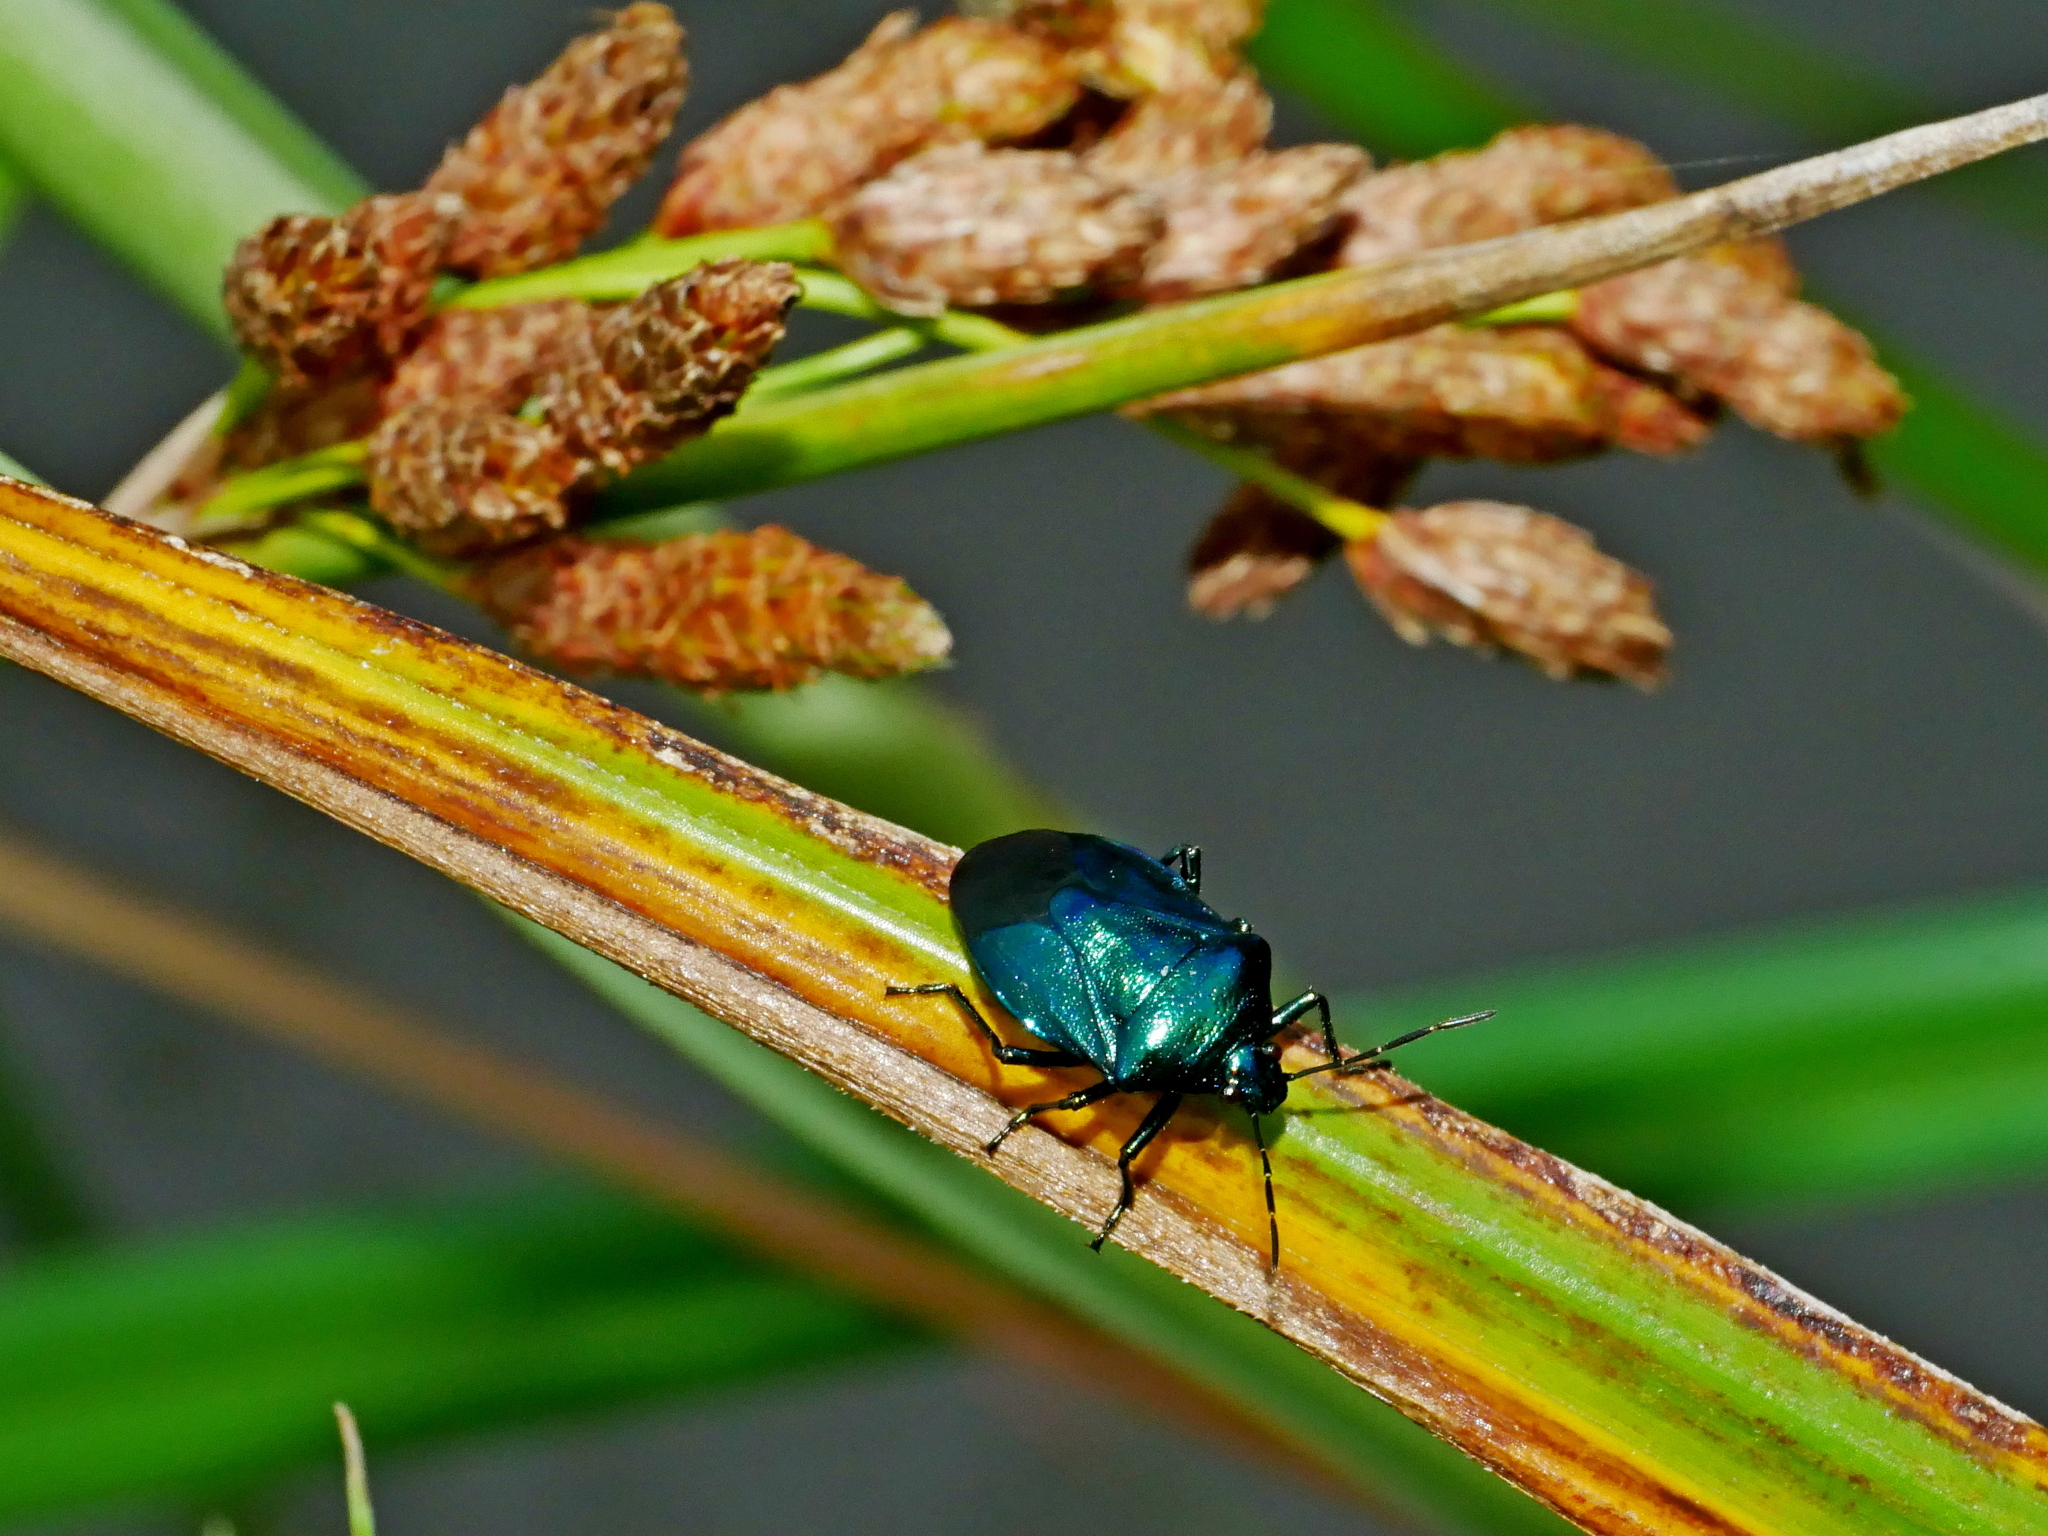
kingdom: Animalia
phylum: Arthropoda
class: Insecta
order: Hemiptera
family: Pentatomidae
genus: Zicrona
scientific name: Zicrona caerulea
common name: Blue shieldbug
